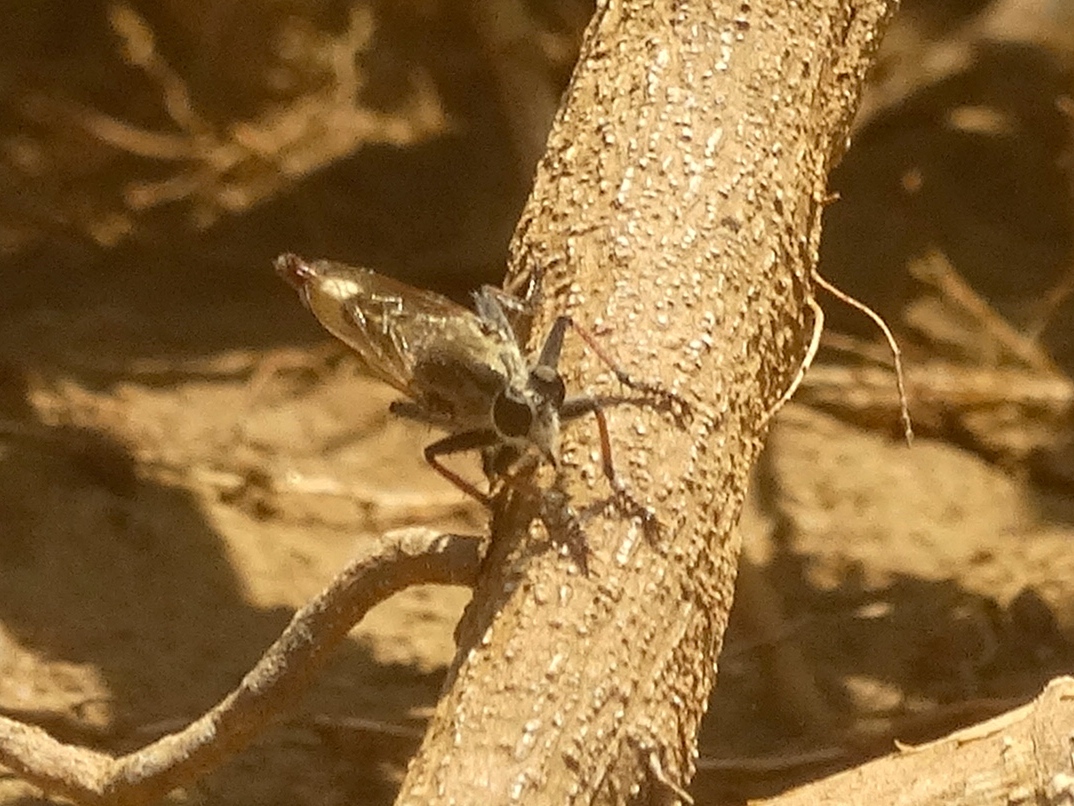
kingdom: Animalia
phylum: Arthropoda
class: Insecta
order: Diptera
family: Asilidae
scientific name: Asilidae
